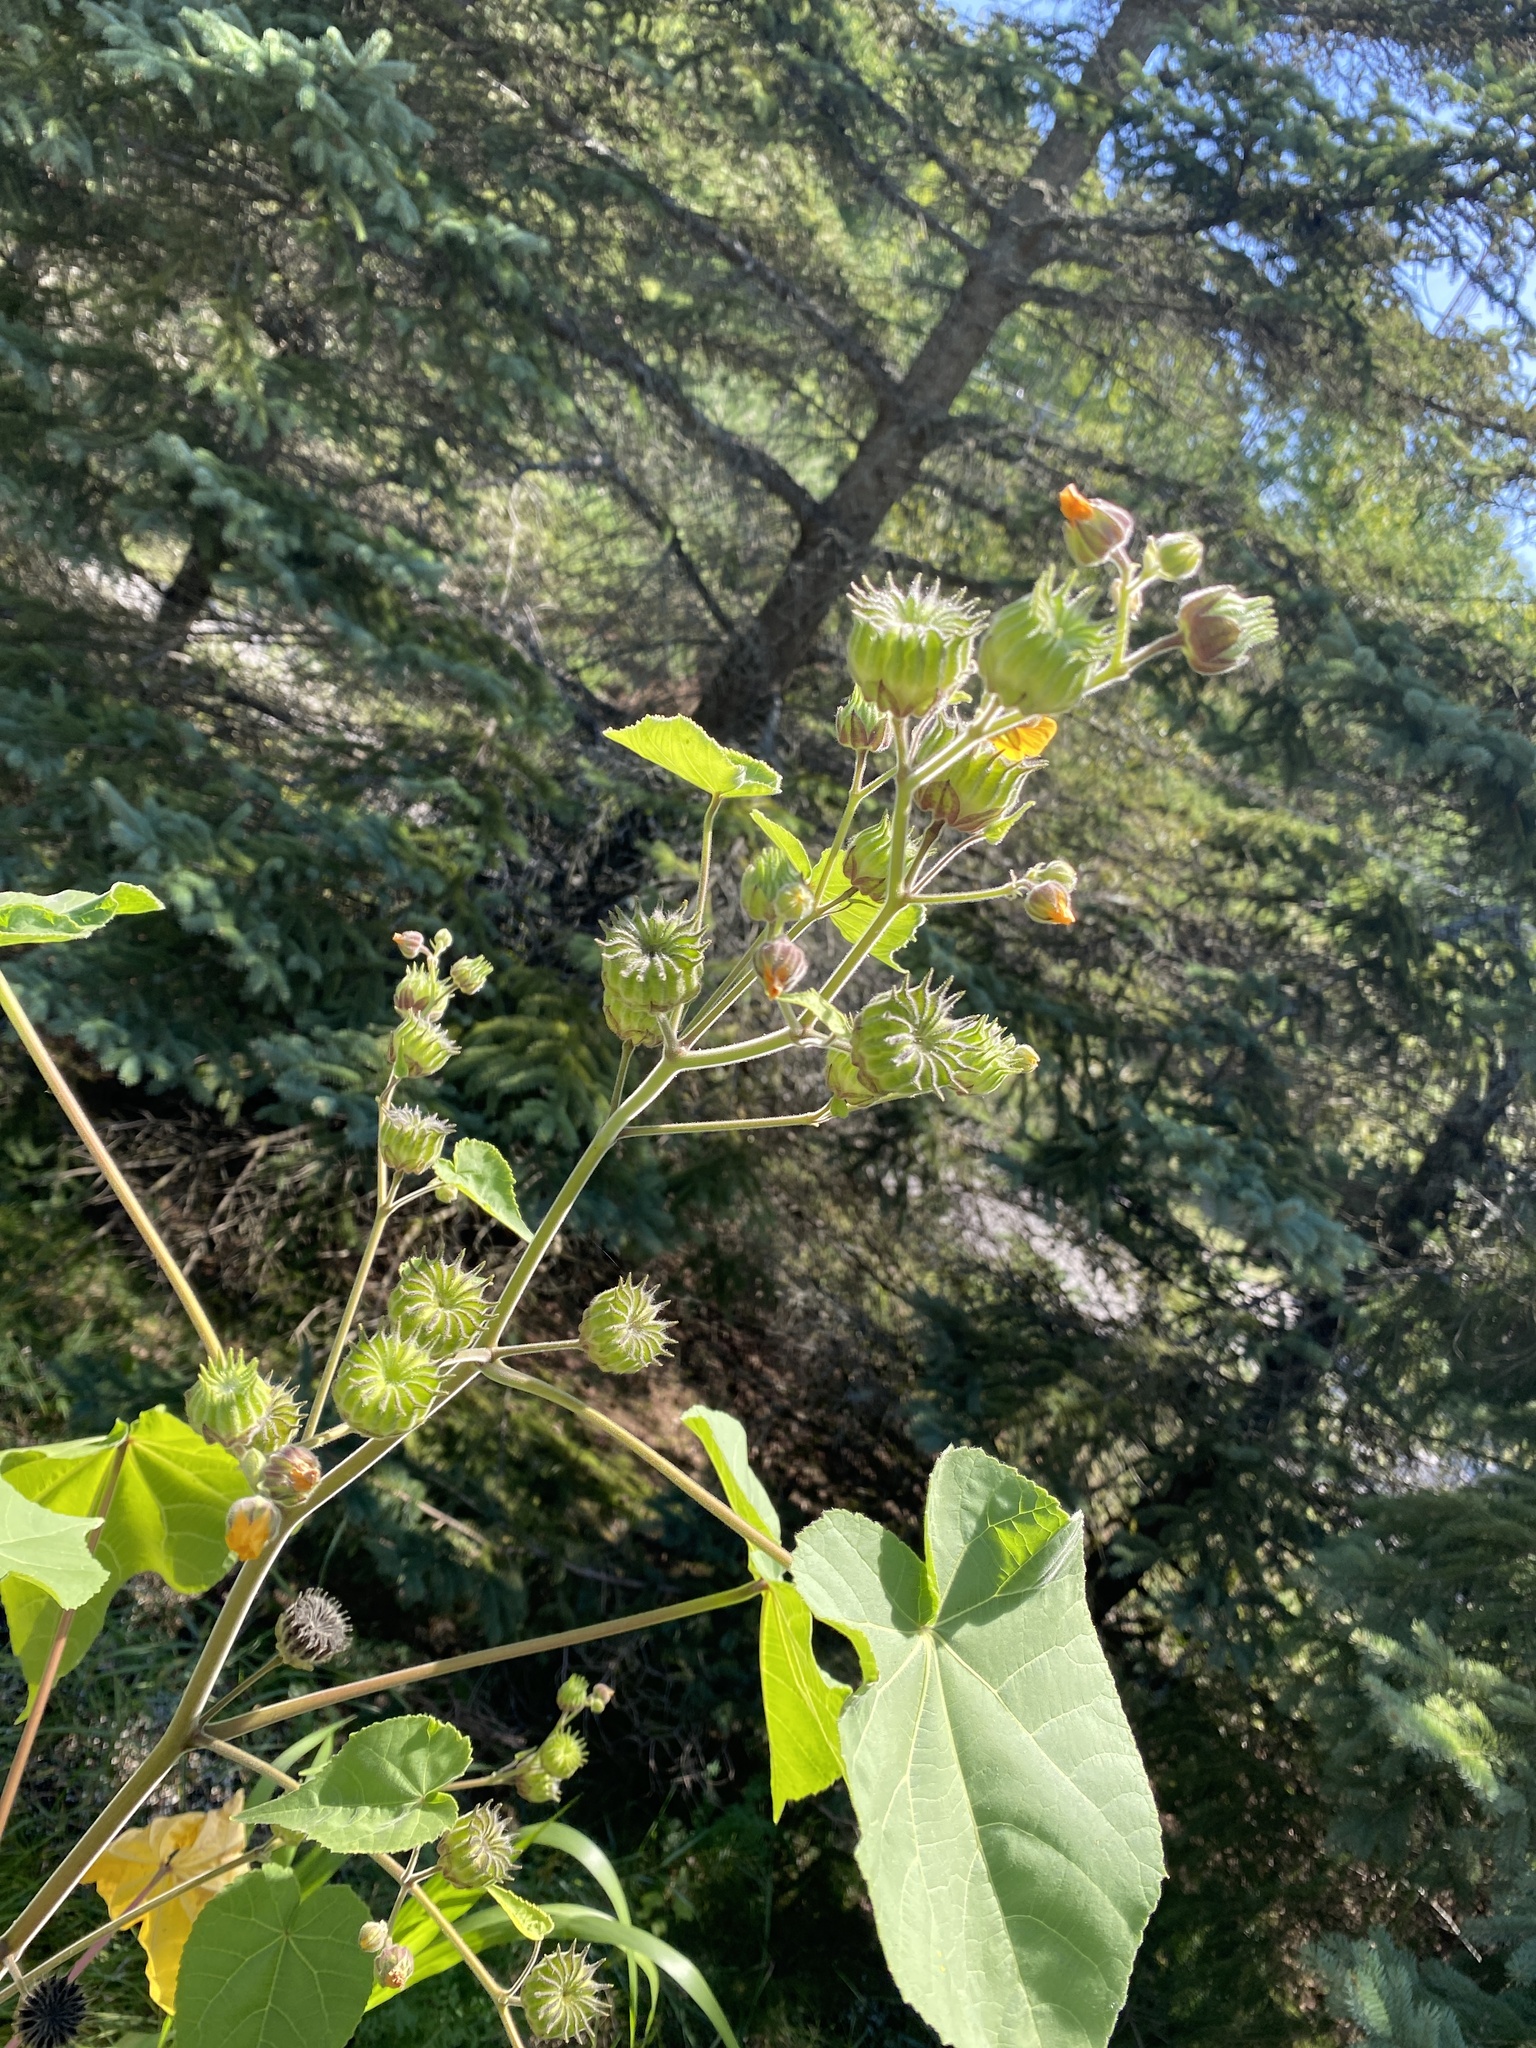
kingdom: Plantae
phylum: Tracheophyta
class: Magnoliopsida
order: Malvales
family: Malvaceae
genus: Abutilon
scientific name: Abutilon theophrasti
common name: Velvetleaf
